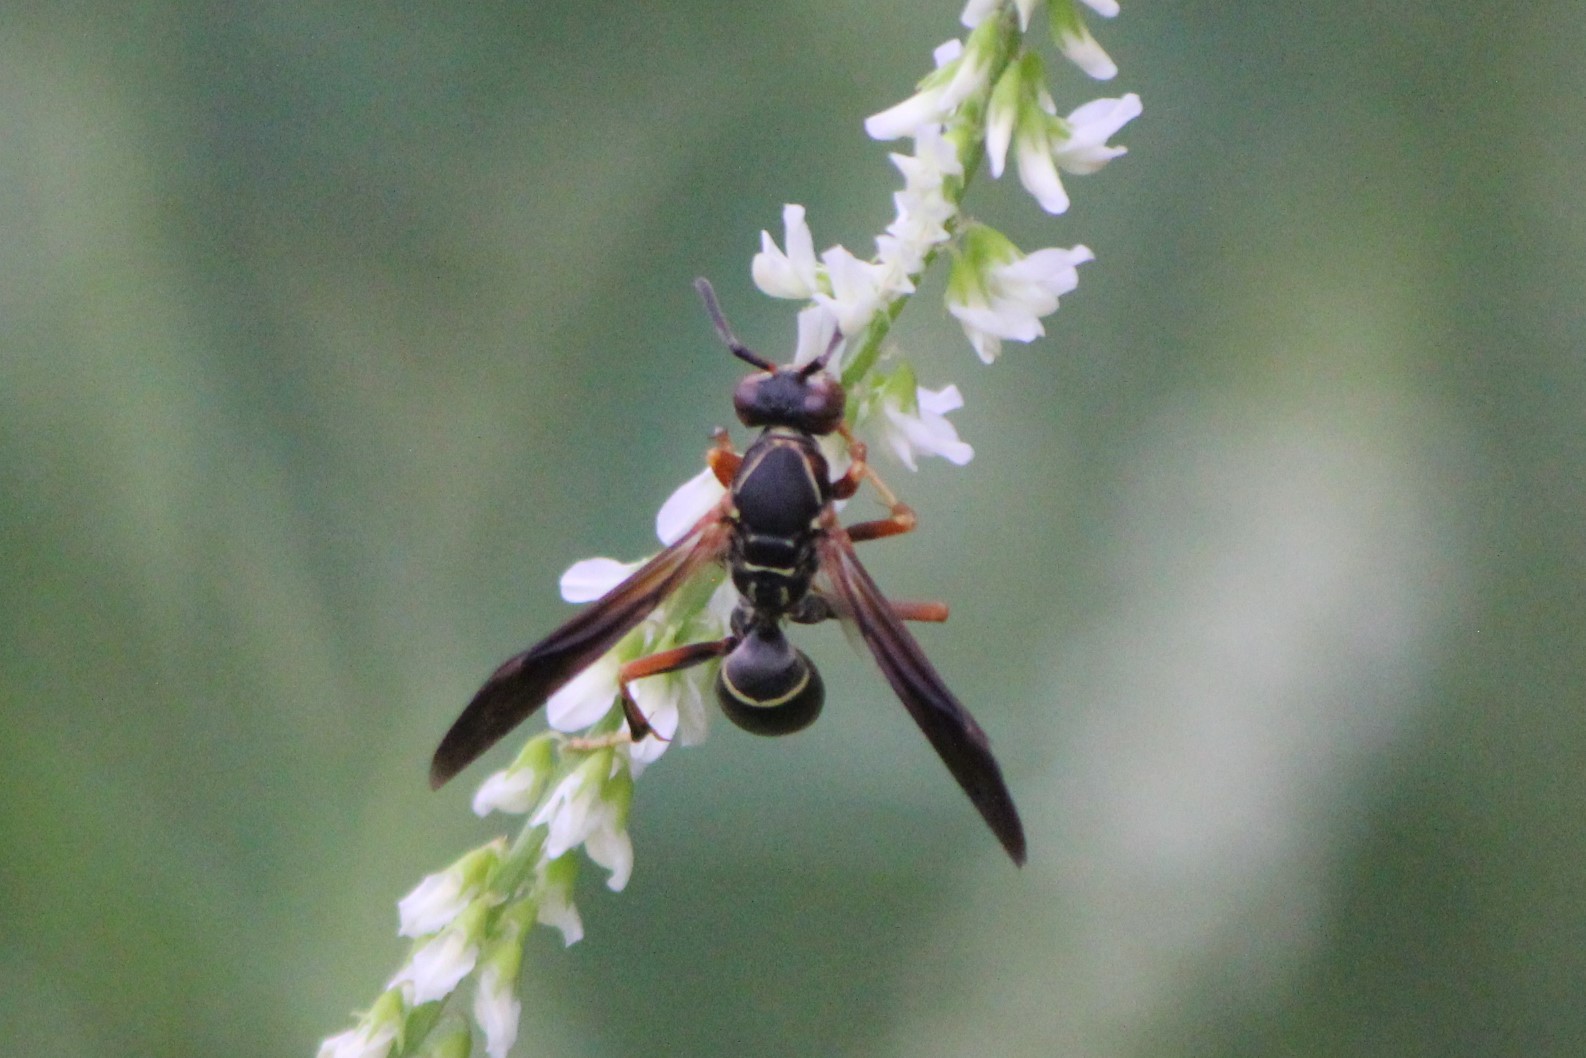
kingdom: Animalia
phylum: Arthropoda
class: Insecta
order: Hymenoptera
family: Eumenidae
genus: Polistes
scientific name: Polistes fuscatus
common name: Dark paper wasp
